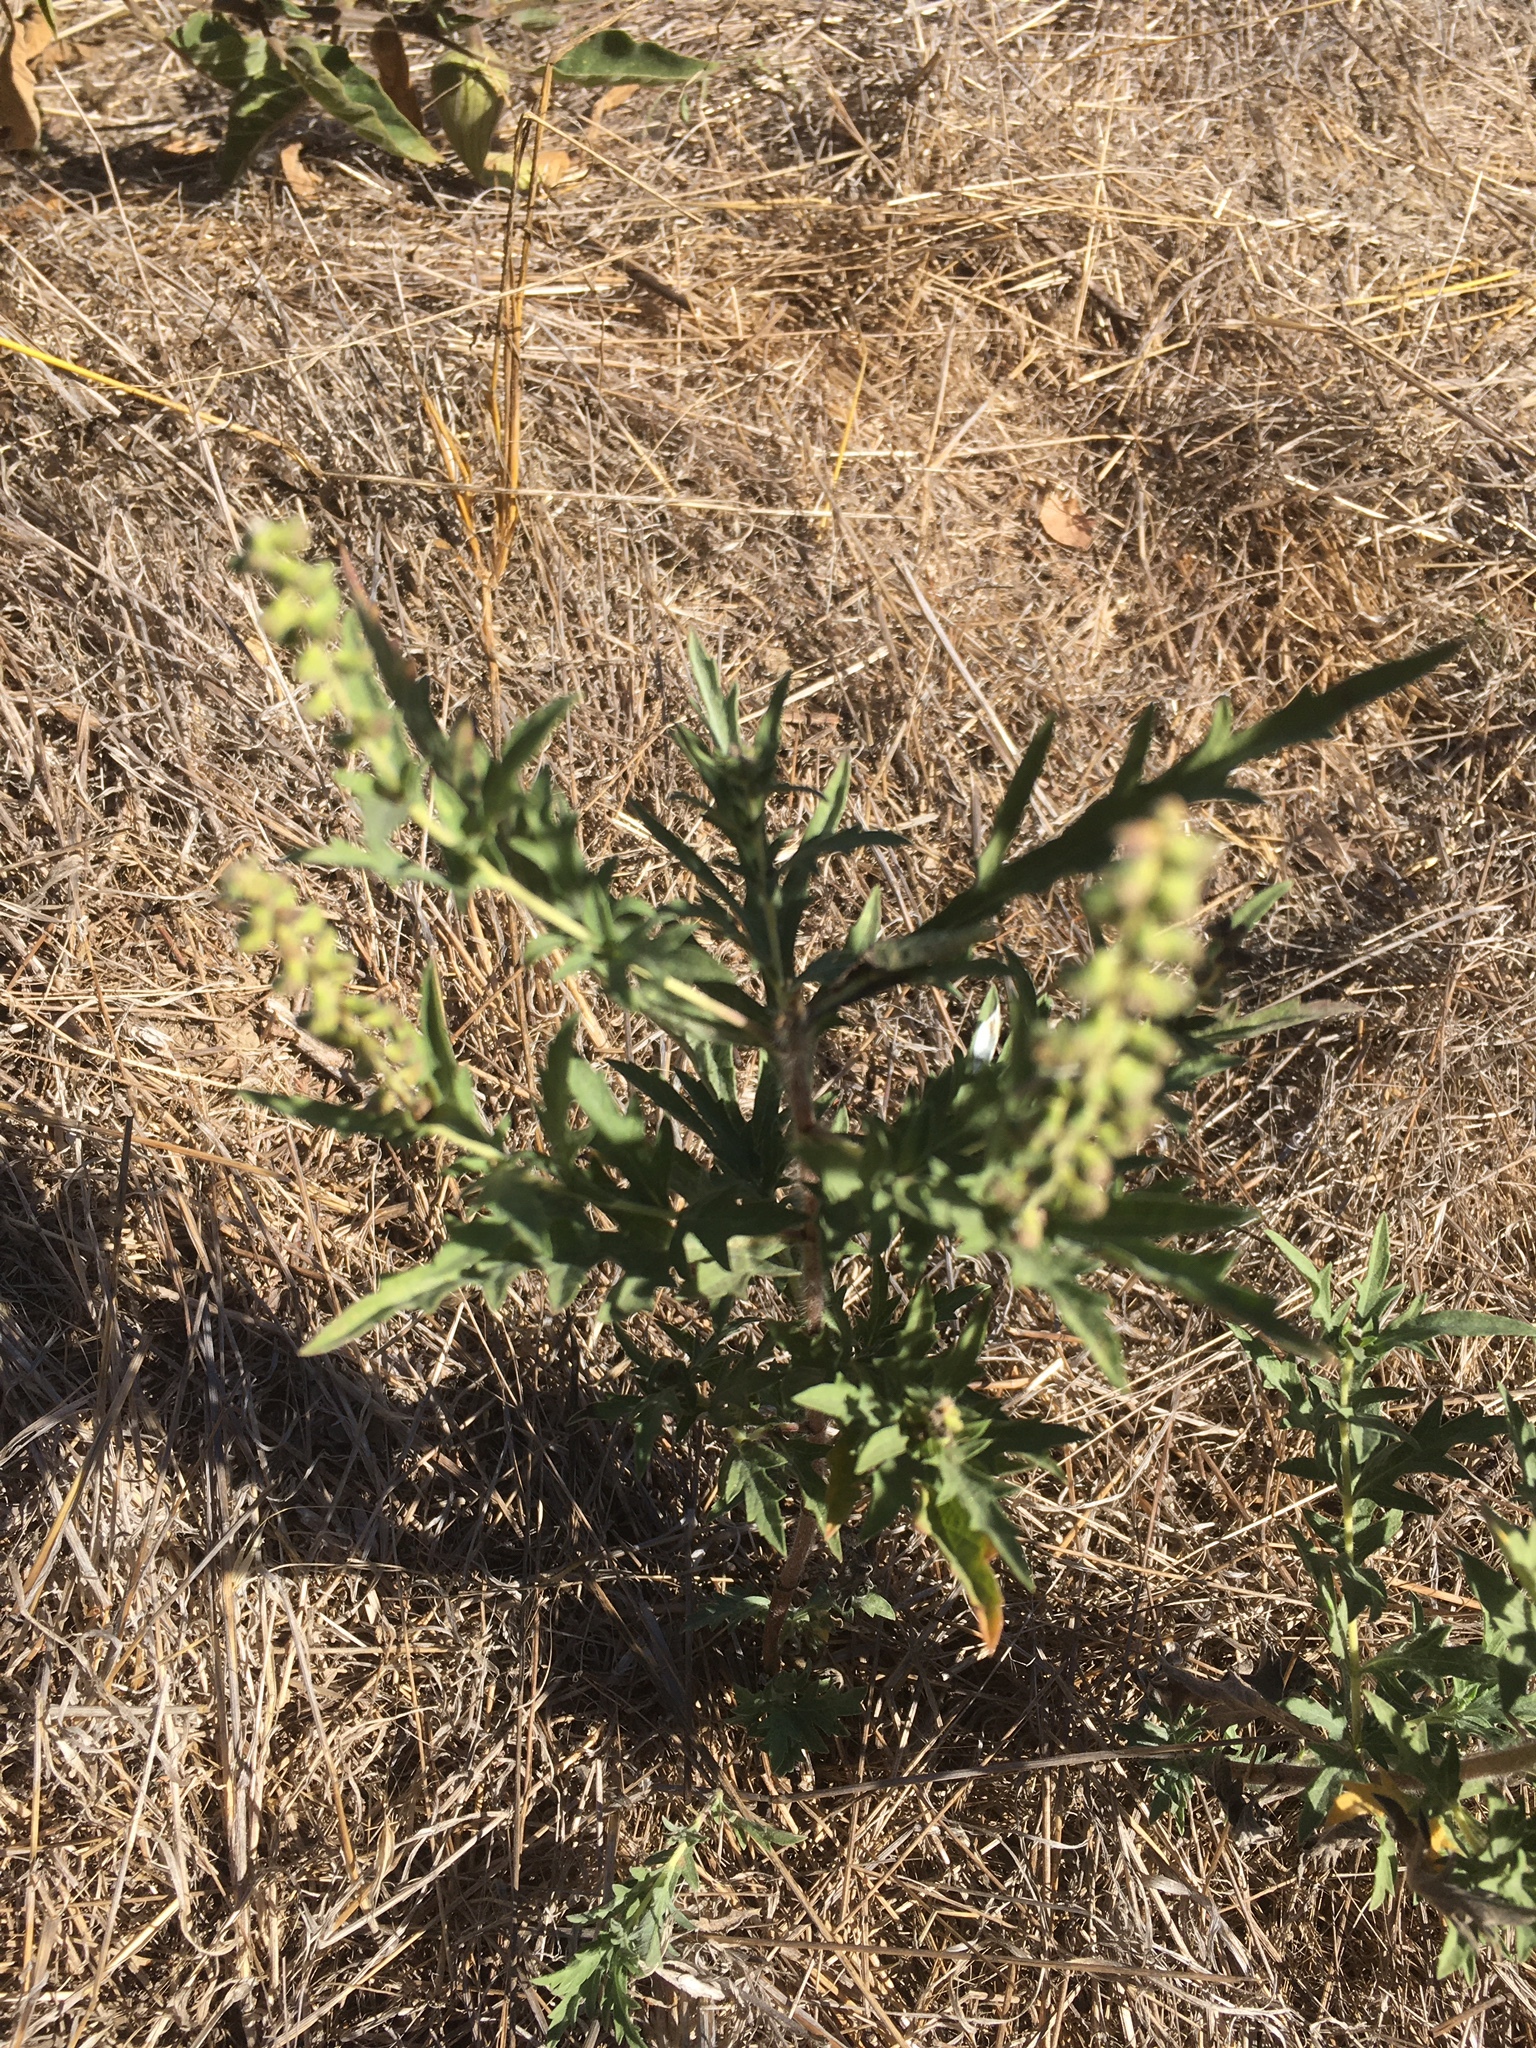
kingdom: Plantae
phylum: Tracheophyta
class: Magnoliopsida
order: Asterales
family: Asteraceae
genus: Ambrosia
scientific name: Ambrosia psilostachya
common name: Perennial ragweed
